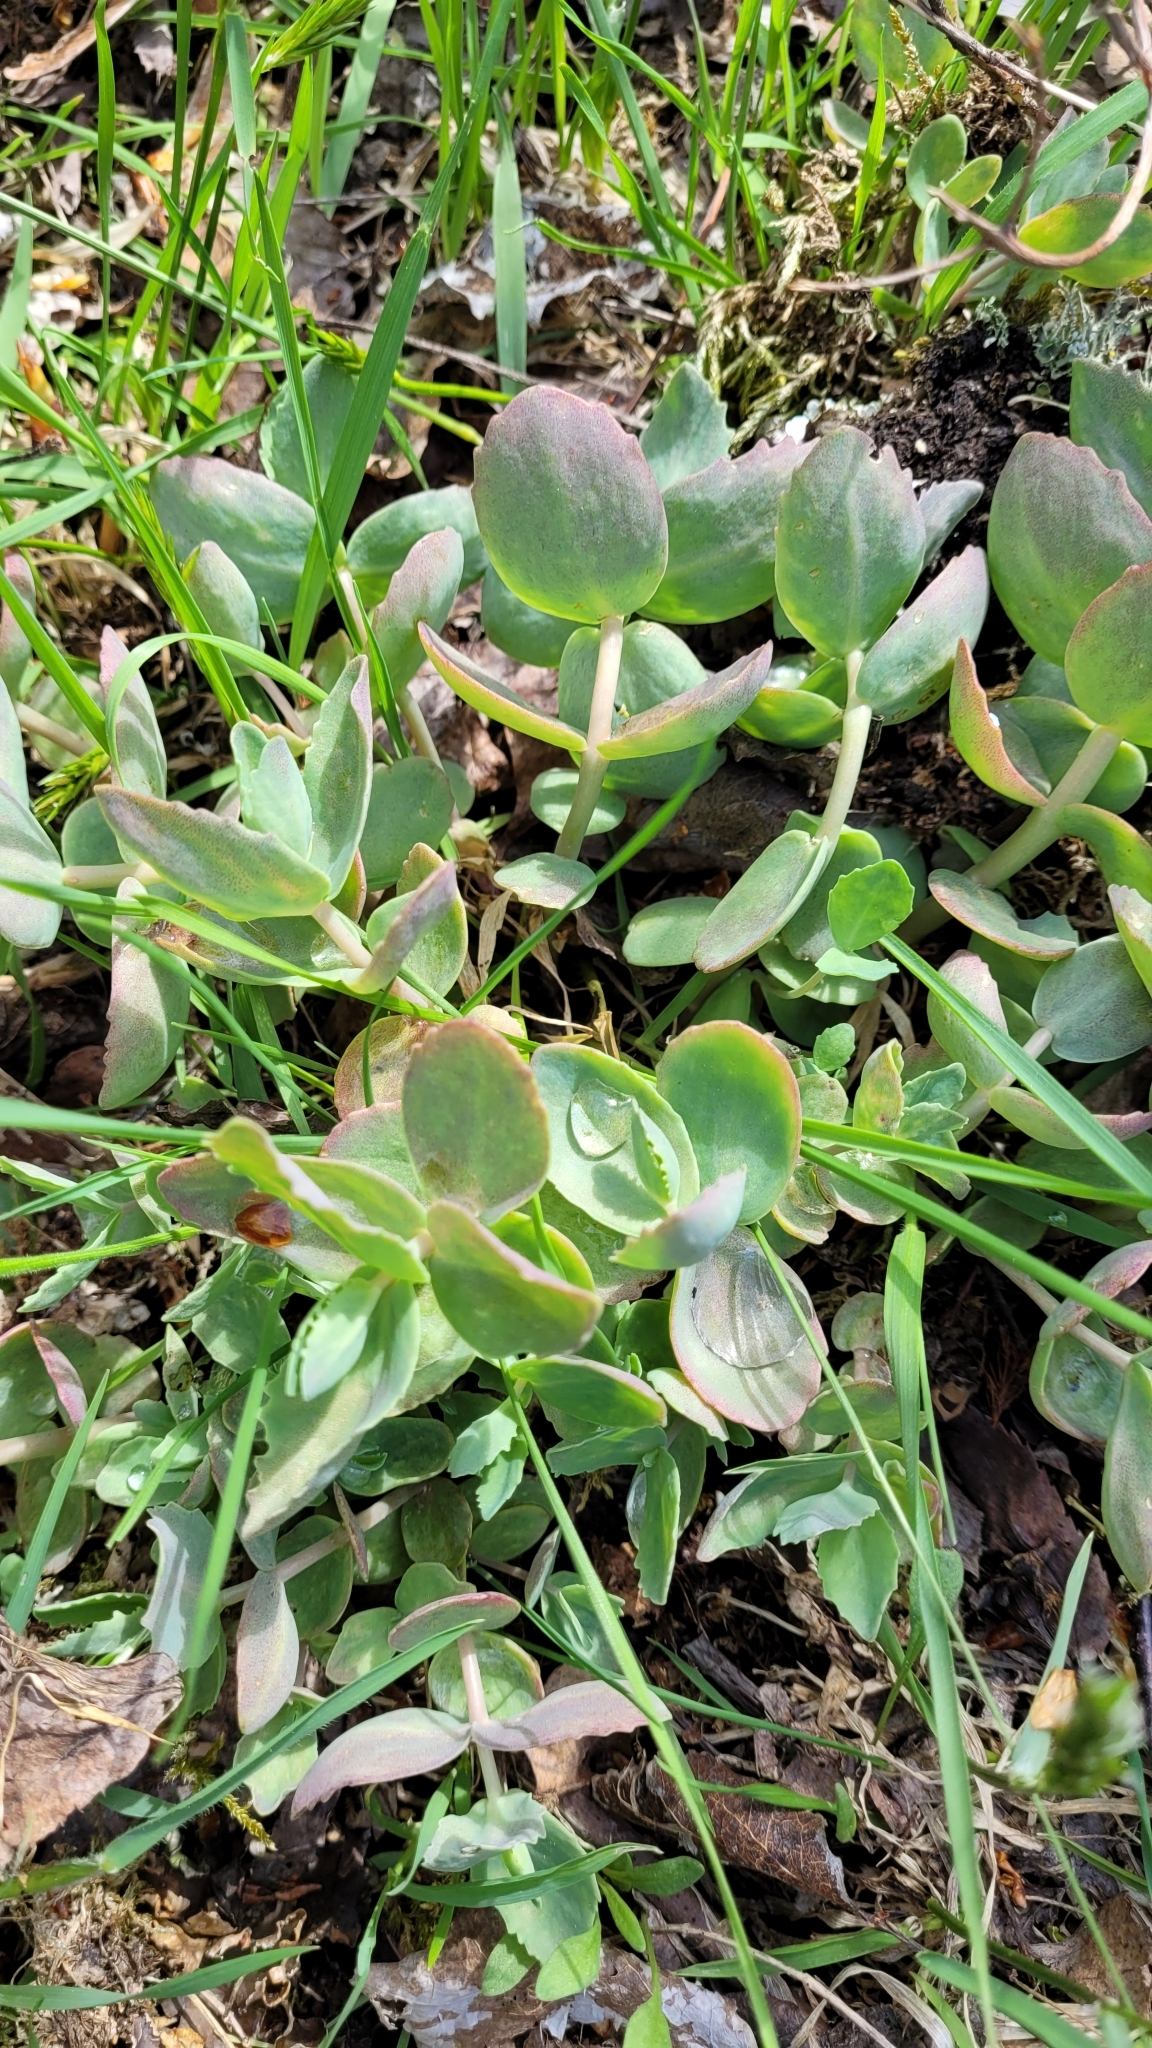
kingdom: Plantae
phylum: Tracheophyta
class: Magnoliopsida
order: Saxifragales
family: Crassulaceae
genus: Hylotelephium
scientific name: Hylotelephium maximum
